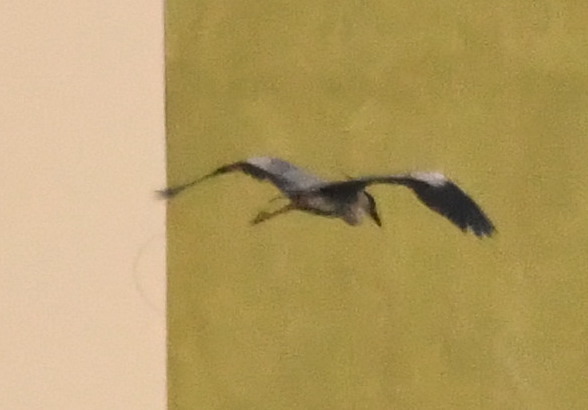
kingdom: Animalia
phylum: Chordata
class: Aves
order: Pelecaniformes
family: Ardeidae
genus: Nycticorax
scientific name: Nycticorax nycticorax
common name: Black-crowned night heron
